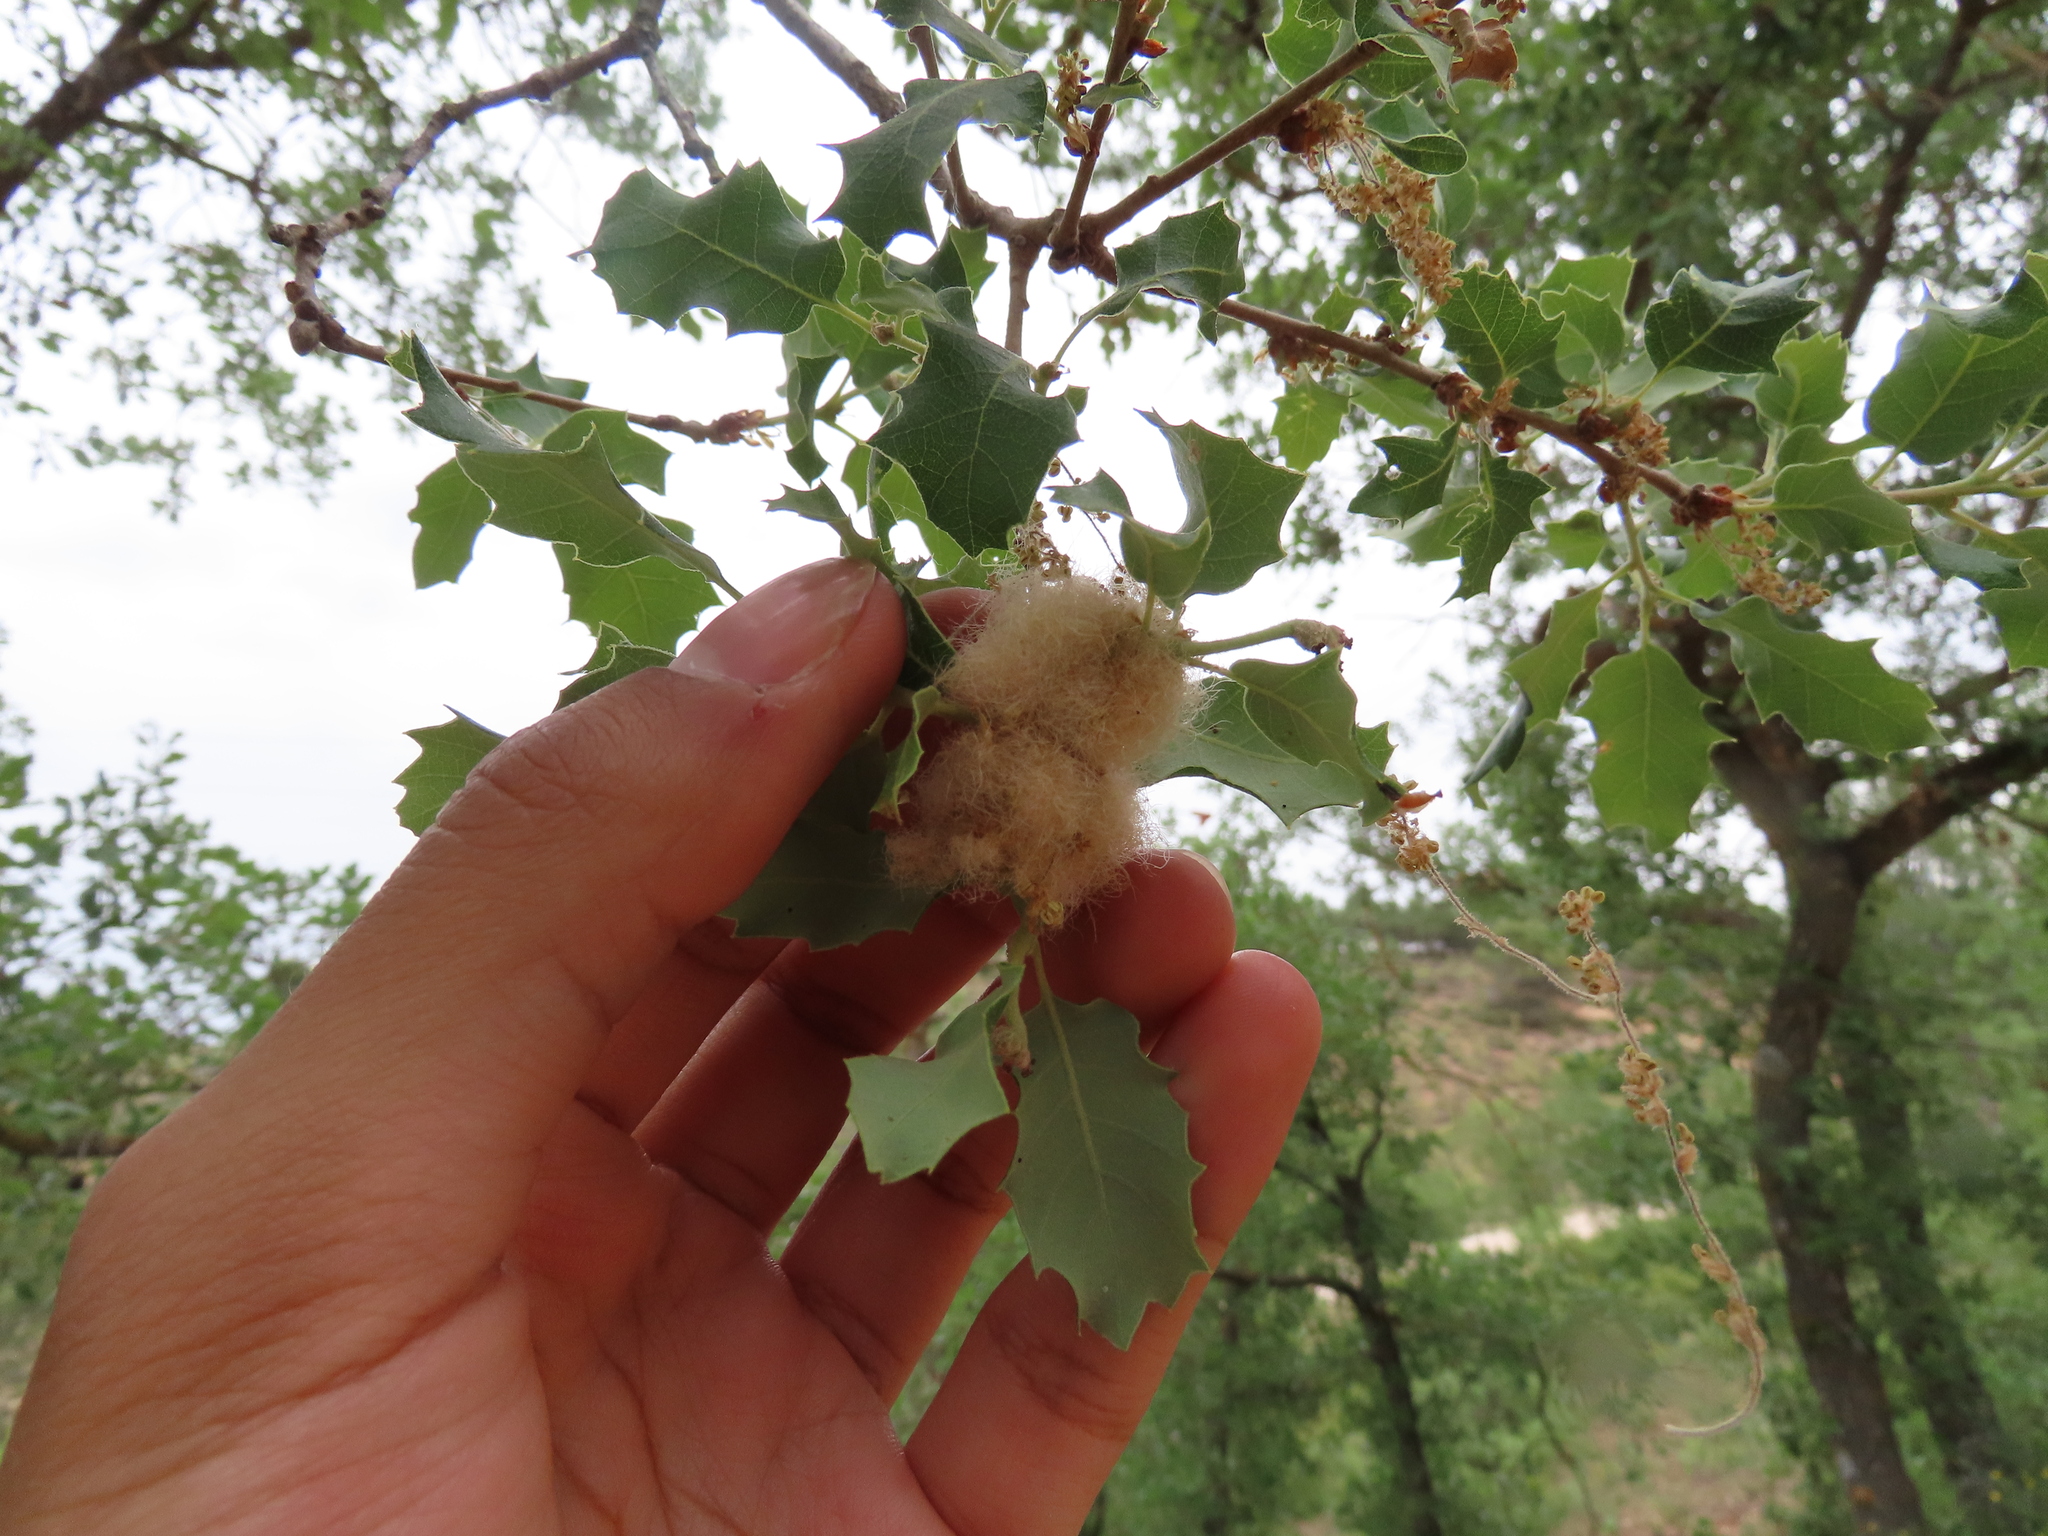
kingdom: Animalia
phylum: Arthropoda
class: Insecta
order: Hymenoptera
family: Cynipidae
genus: Andricus
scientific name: Andricus quercusramuli
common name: Cottonwool gall
